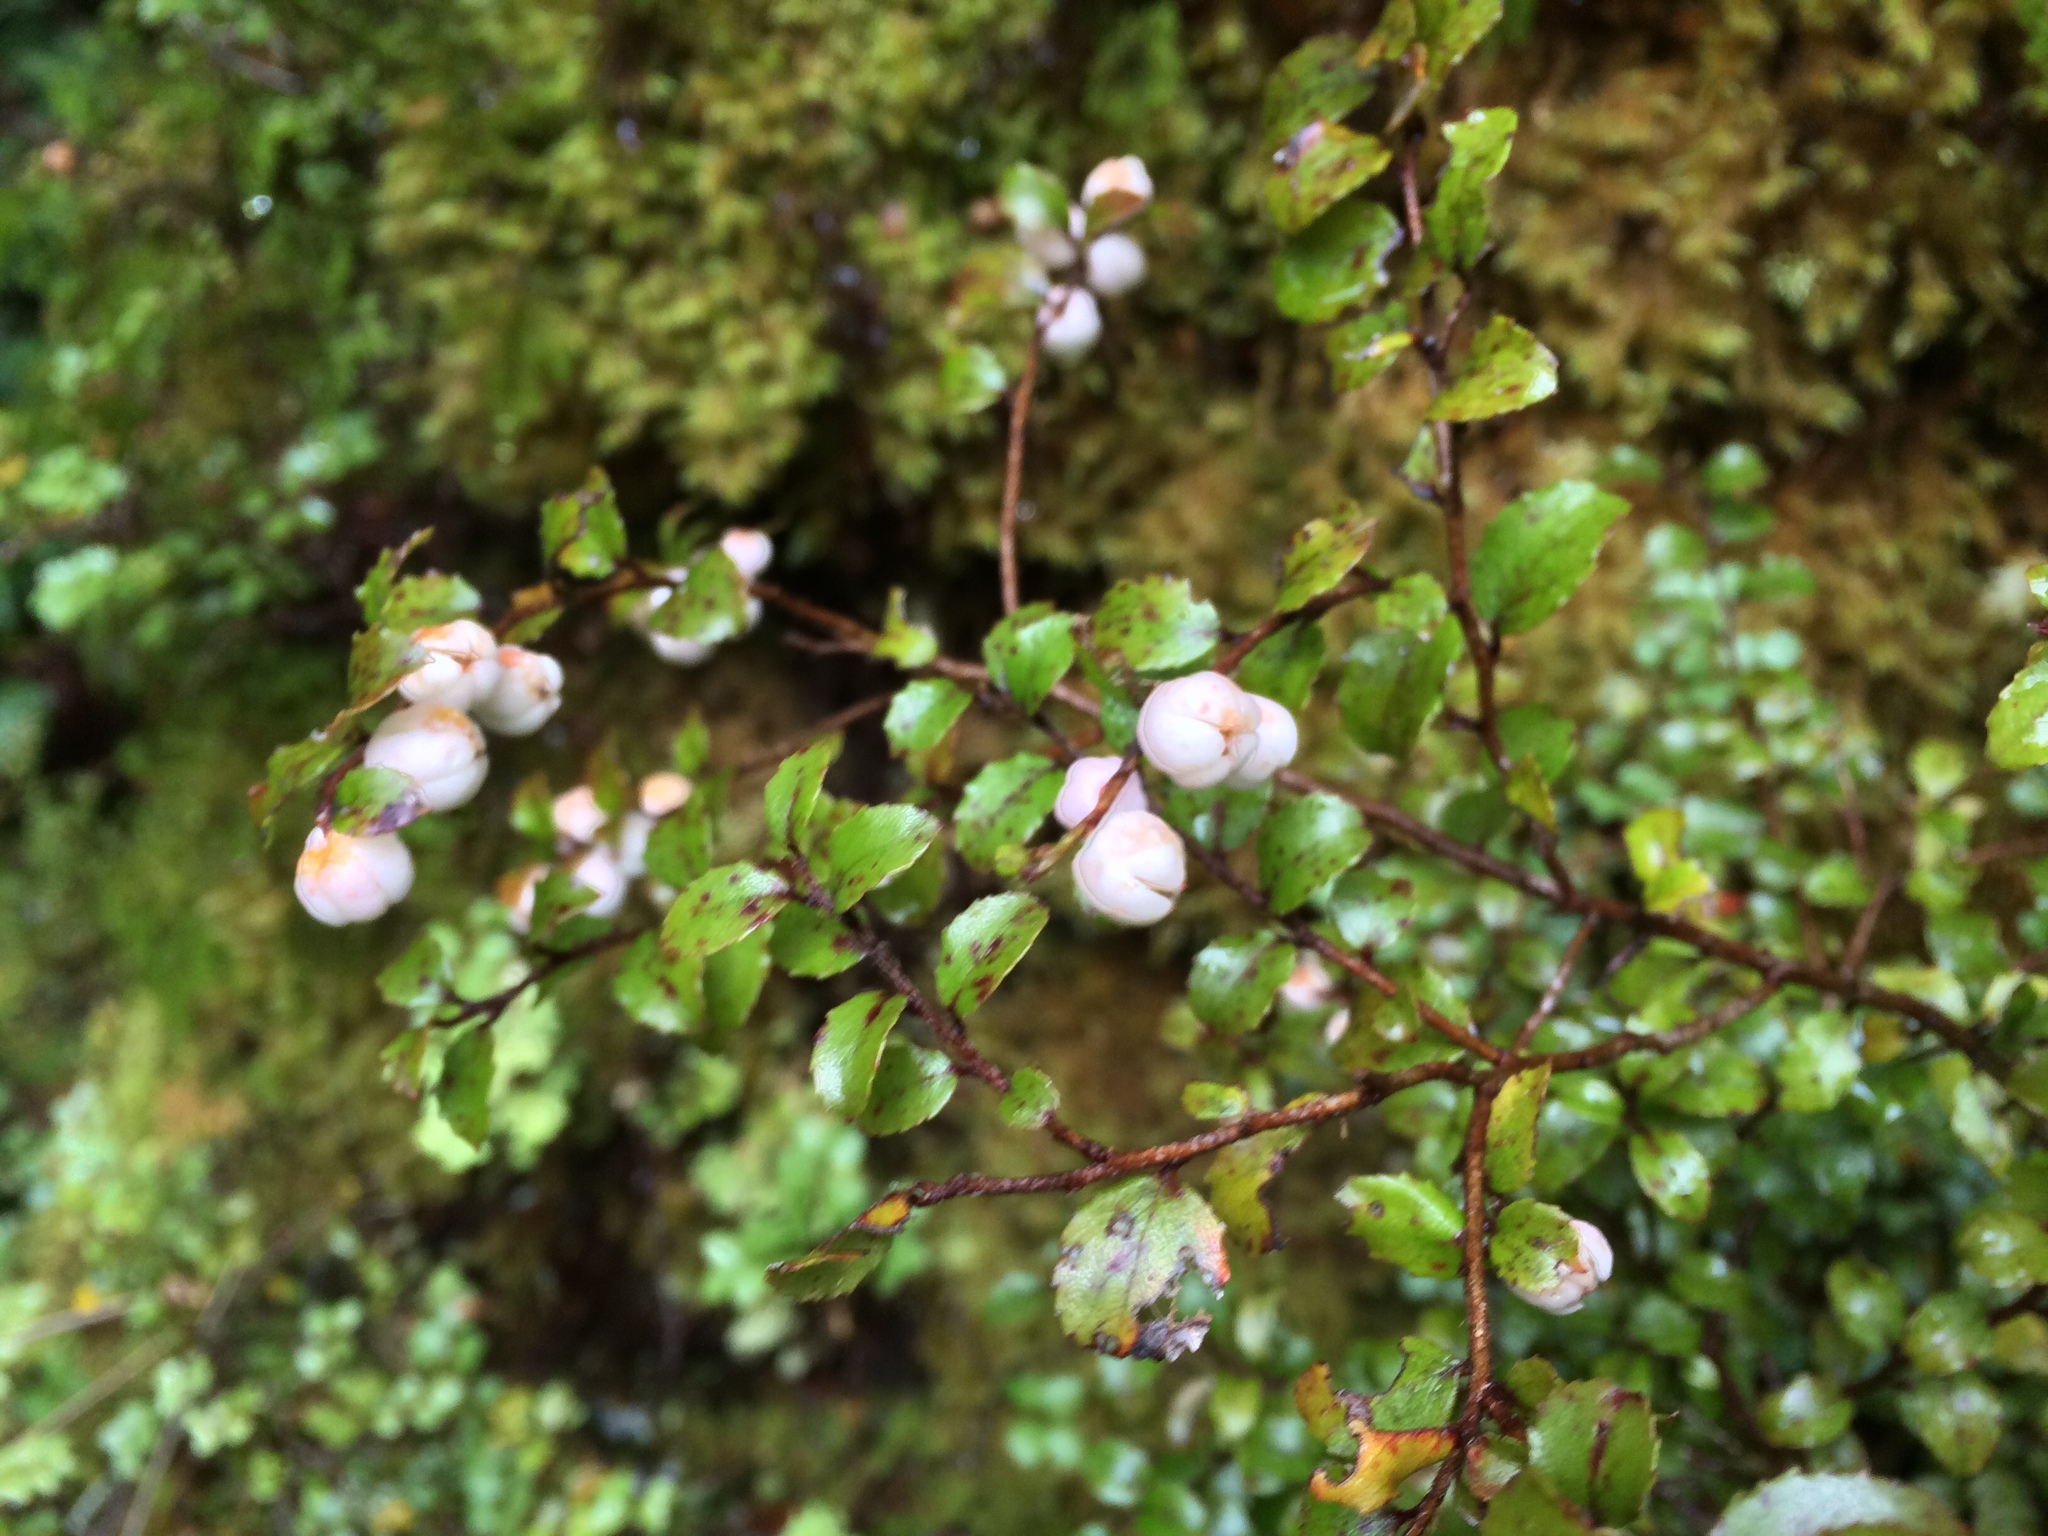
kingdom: Plantae
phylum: Tracheophyta
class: Magnoliopsida
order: Ericales
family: Ericaceae
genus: Gaultheria
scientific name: Gaultheria antipoda
